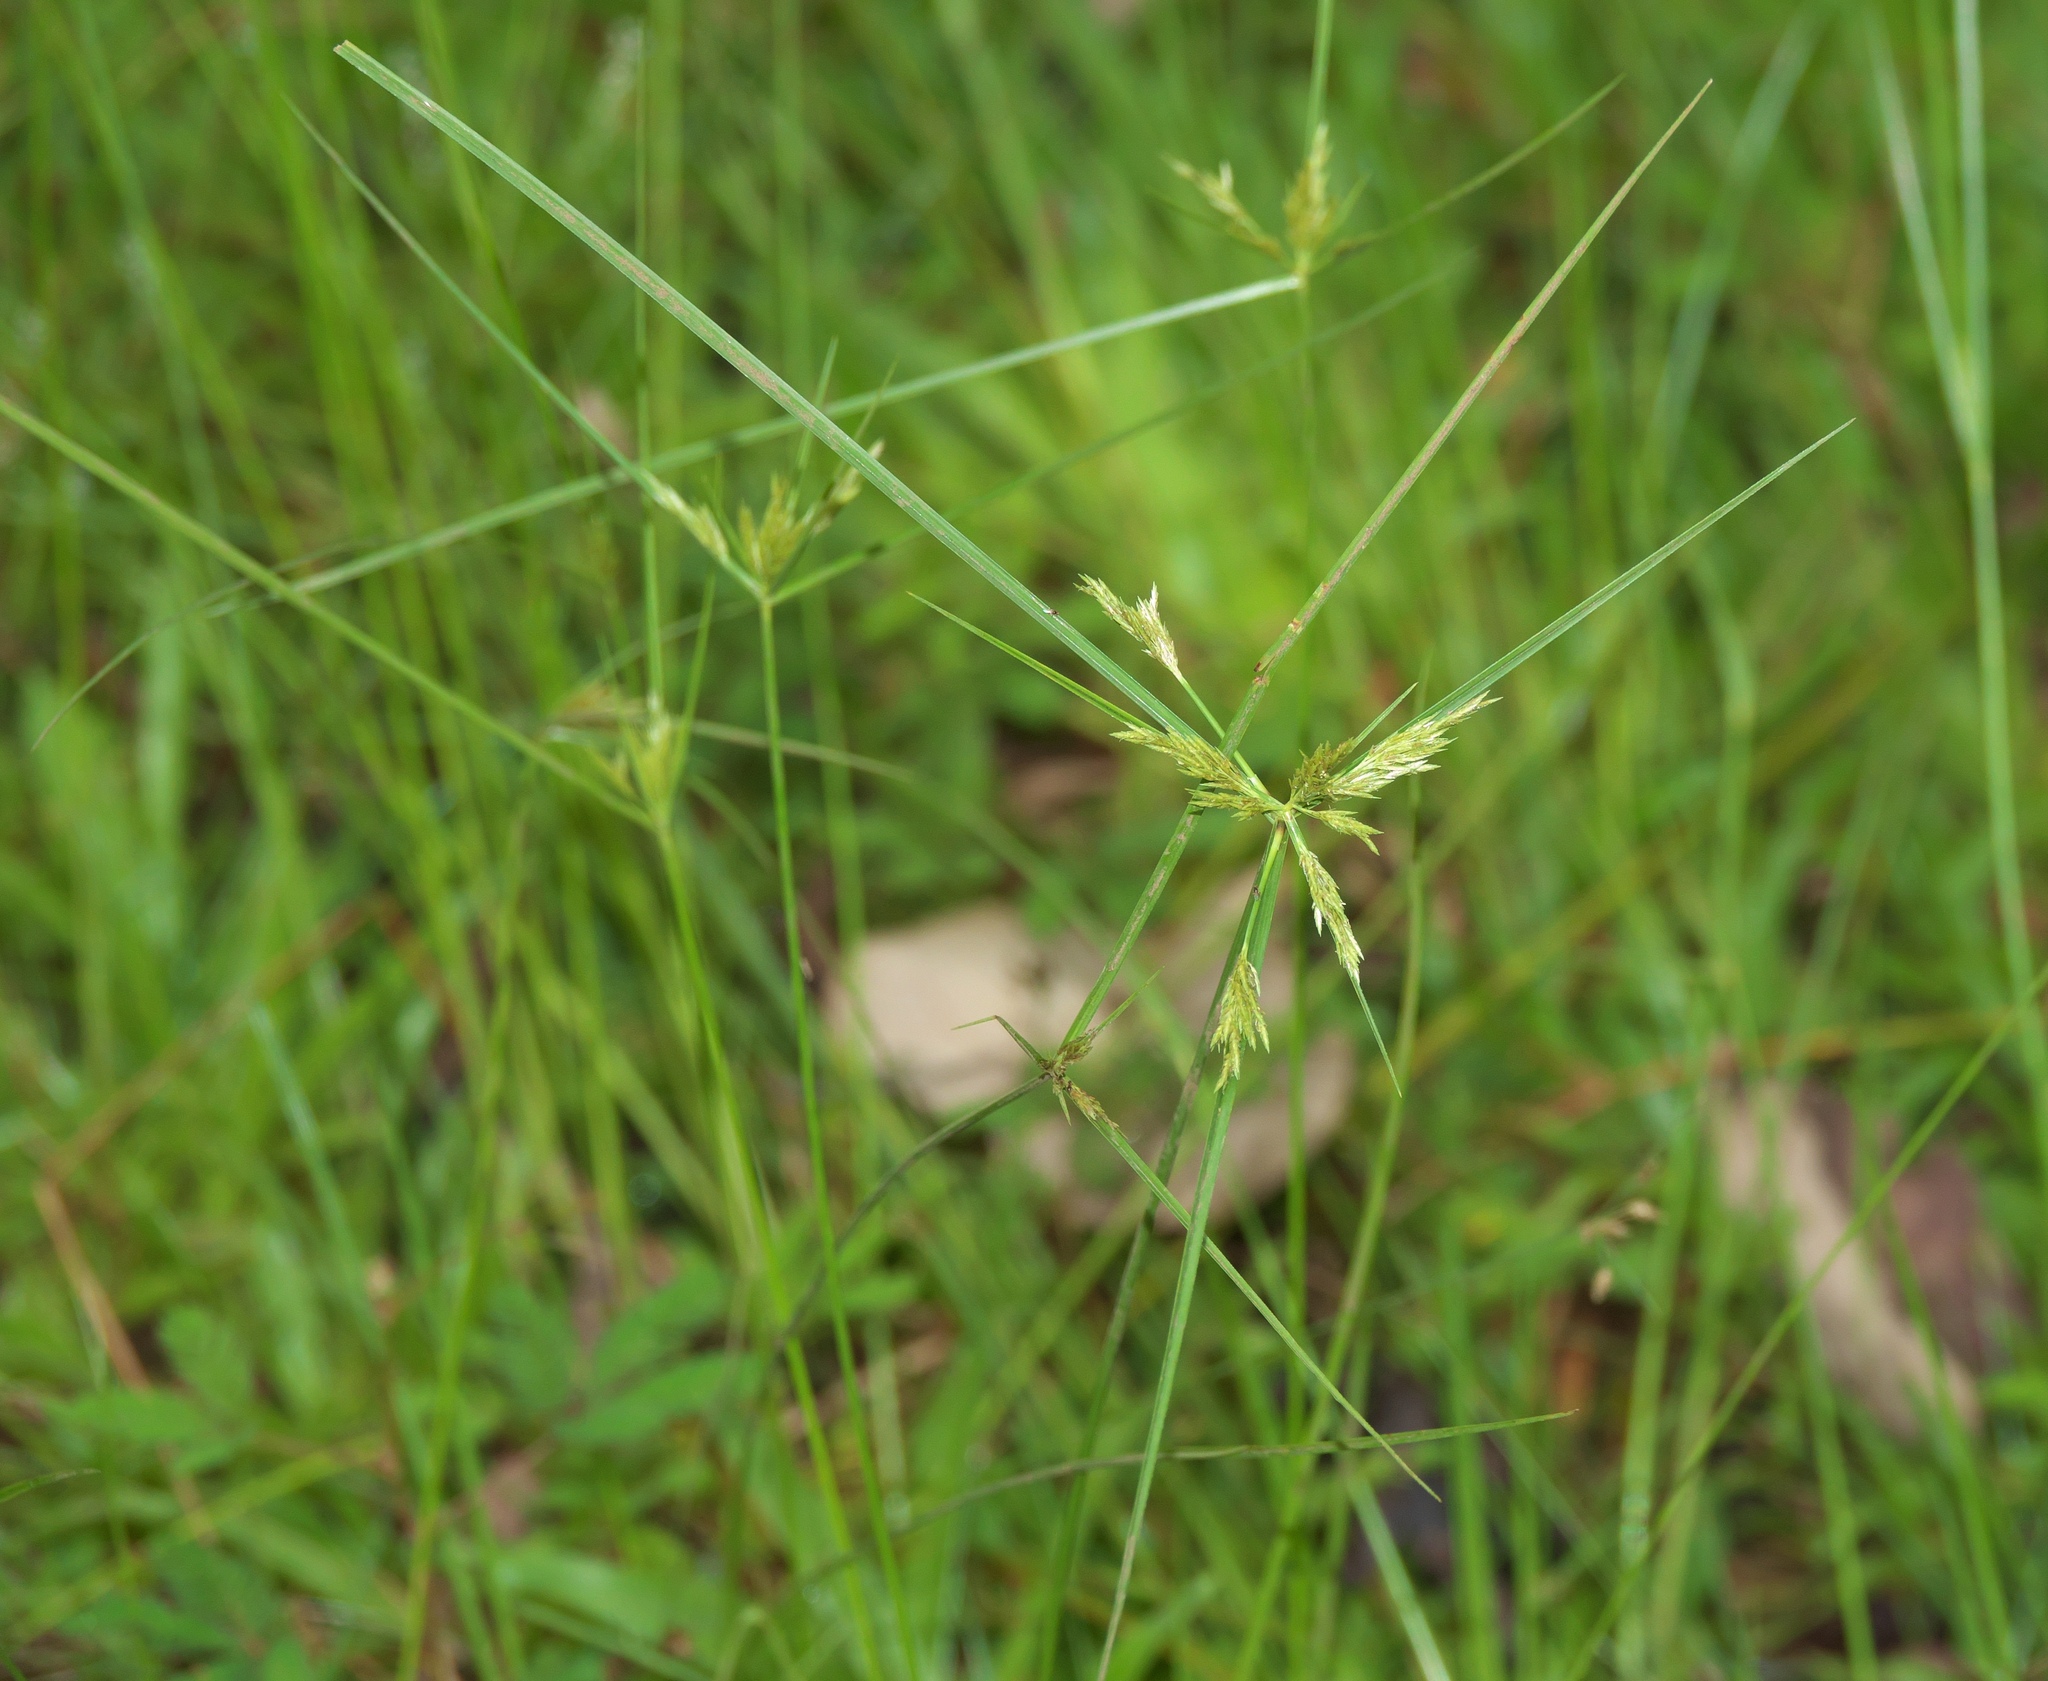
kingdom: Plantae
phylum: Tracheophyta
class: Liliopsida
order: Poales
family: Cyperaceae
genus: Cyperus
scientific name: Cyperus polystachyos
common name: Bunchy flat sedge
